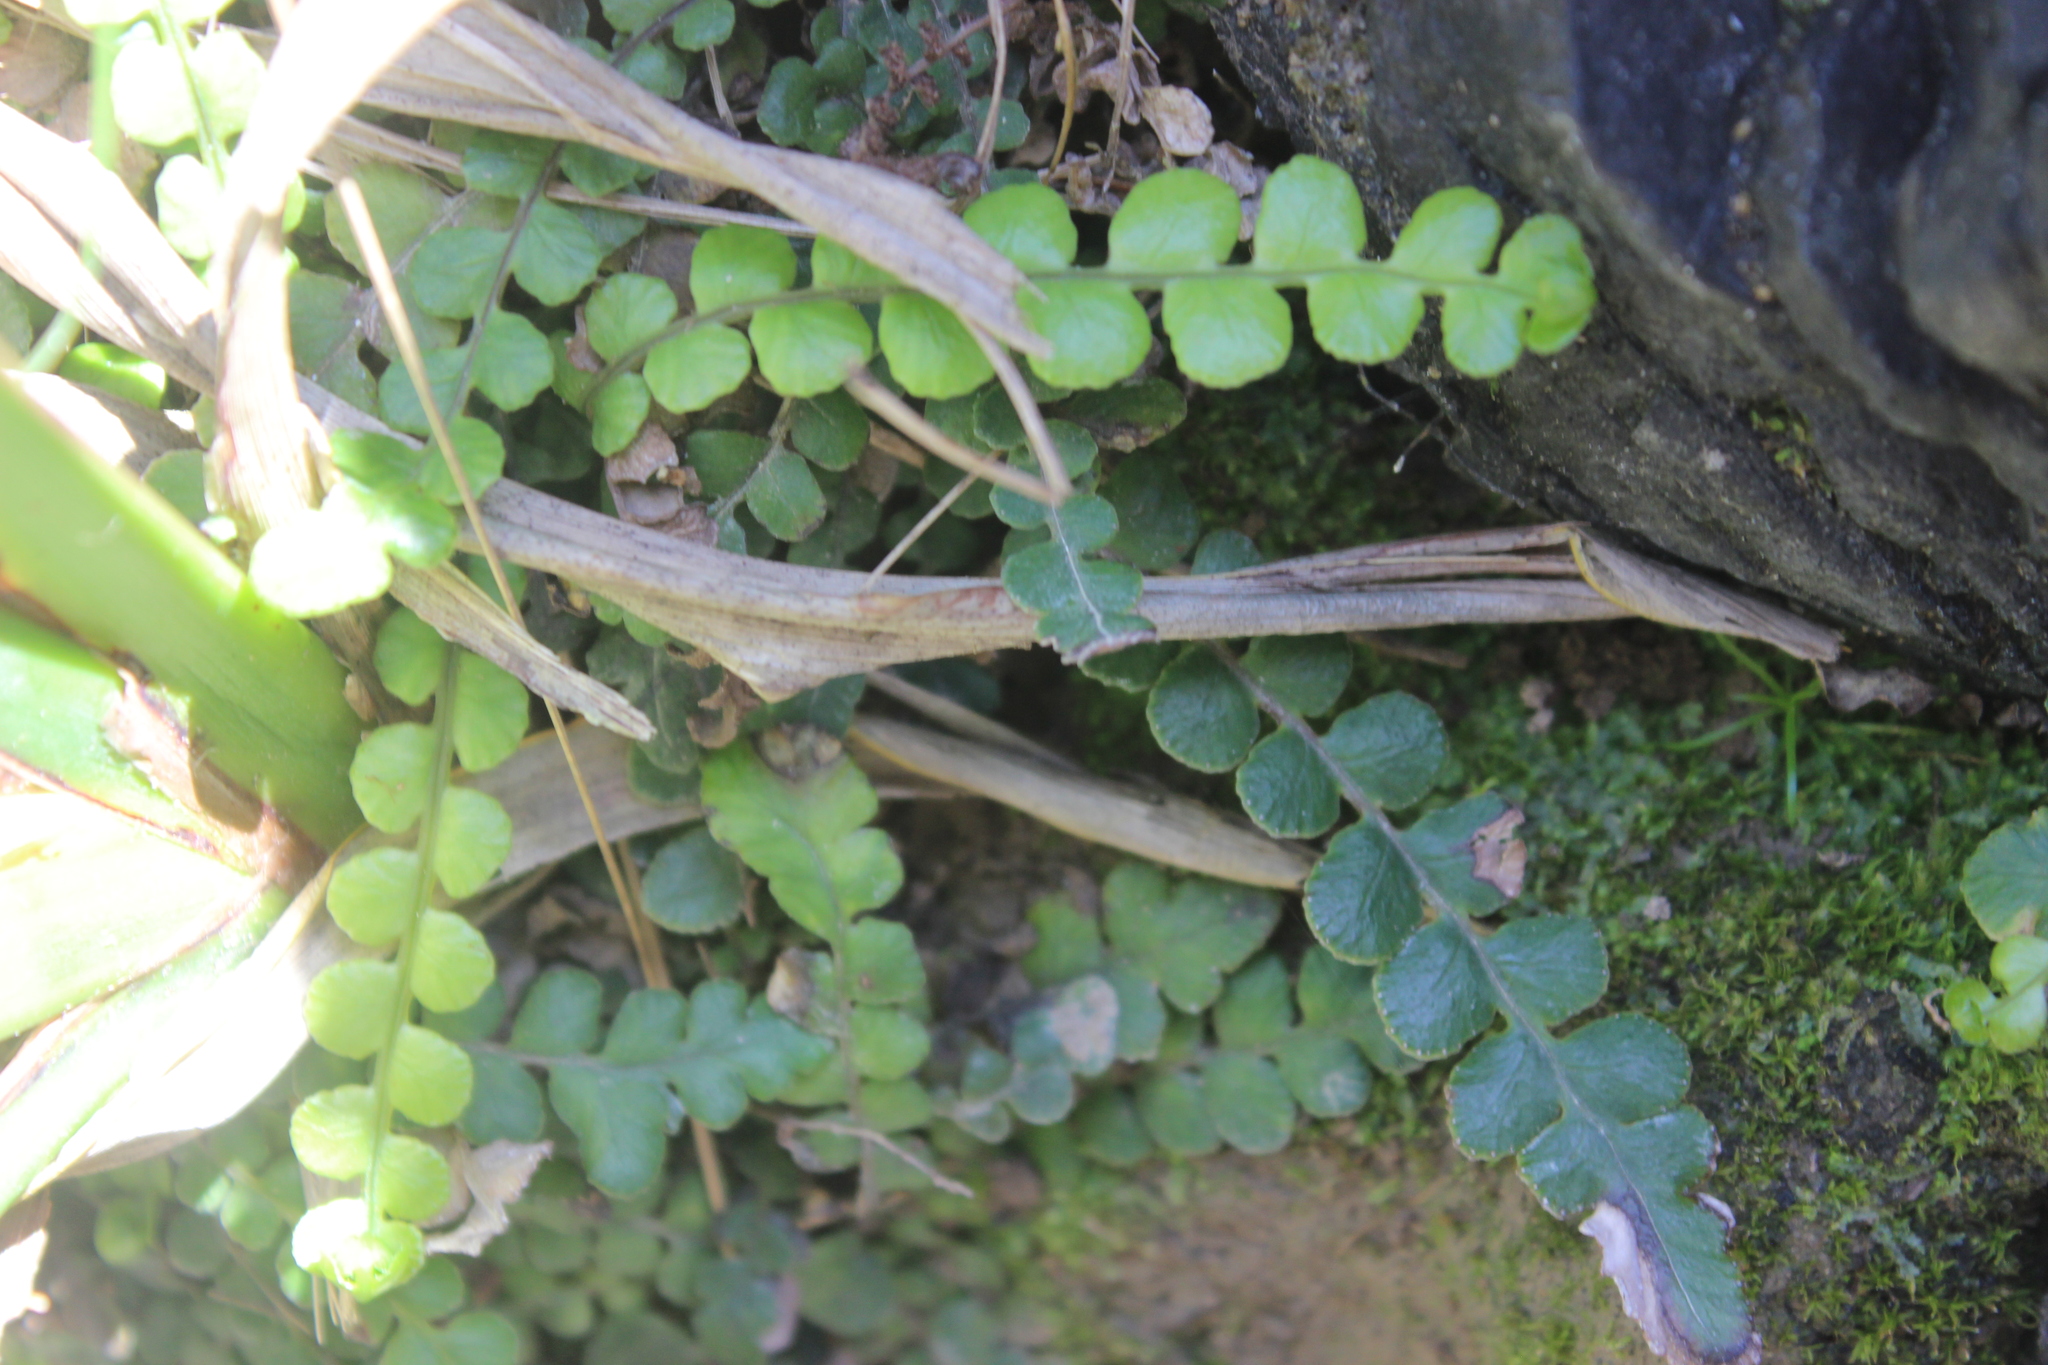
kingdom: Plantae
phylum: Tracheophyta
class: Polypodiopsida
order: Polypodiales
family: Blechnaceae
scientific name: Blechnaceae
